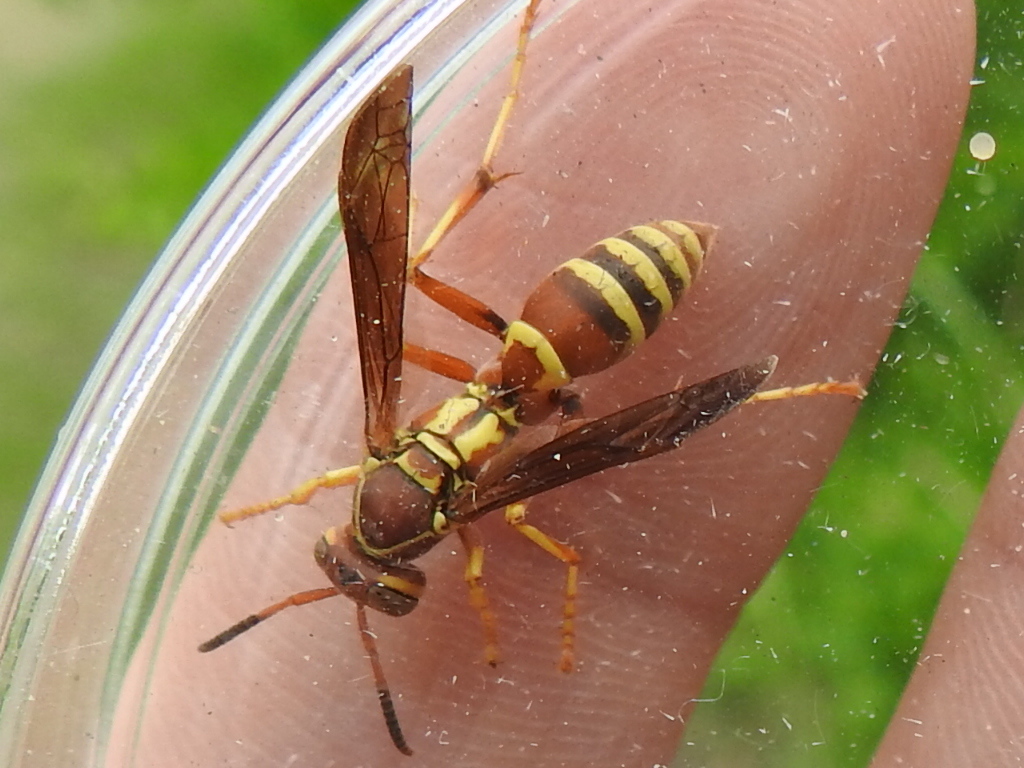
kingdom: Animalia
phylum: Arthropoda
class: Insecta
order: Hymenoptera
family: Eumenidae
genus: Polistes
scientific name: Polistes dorsalis
